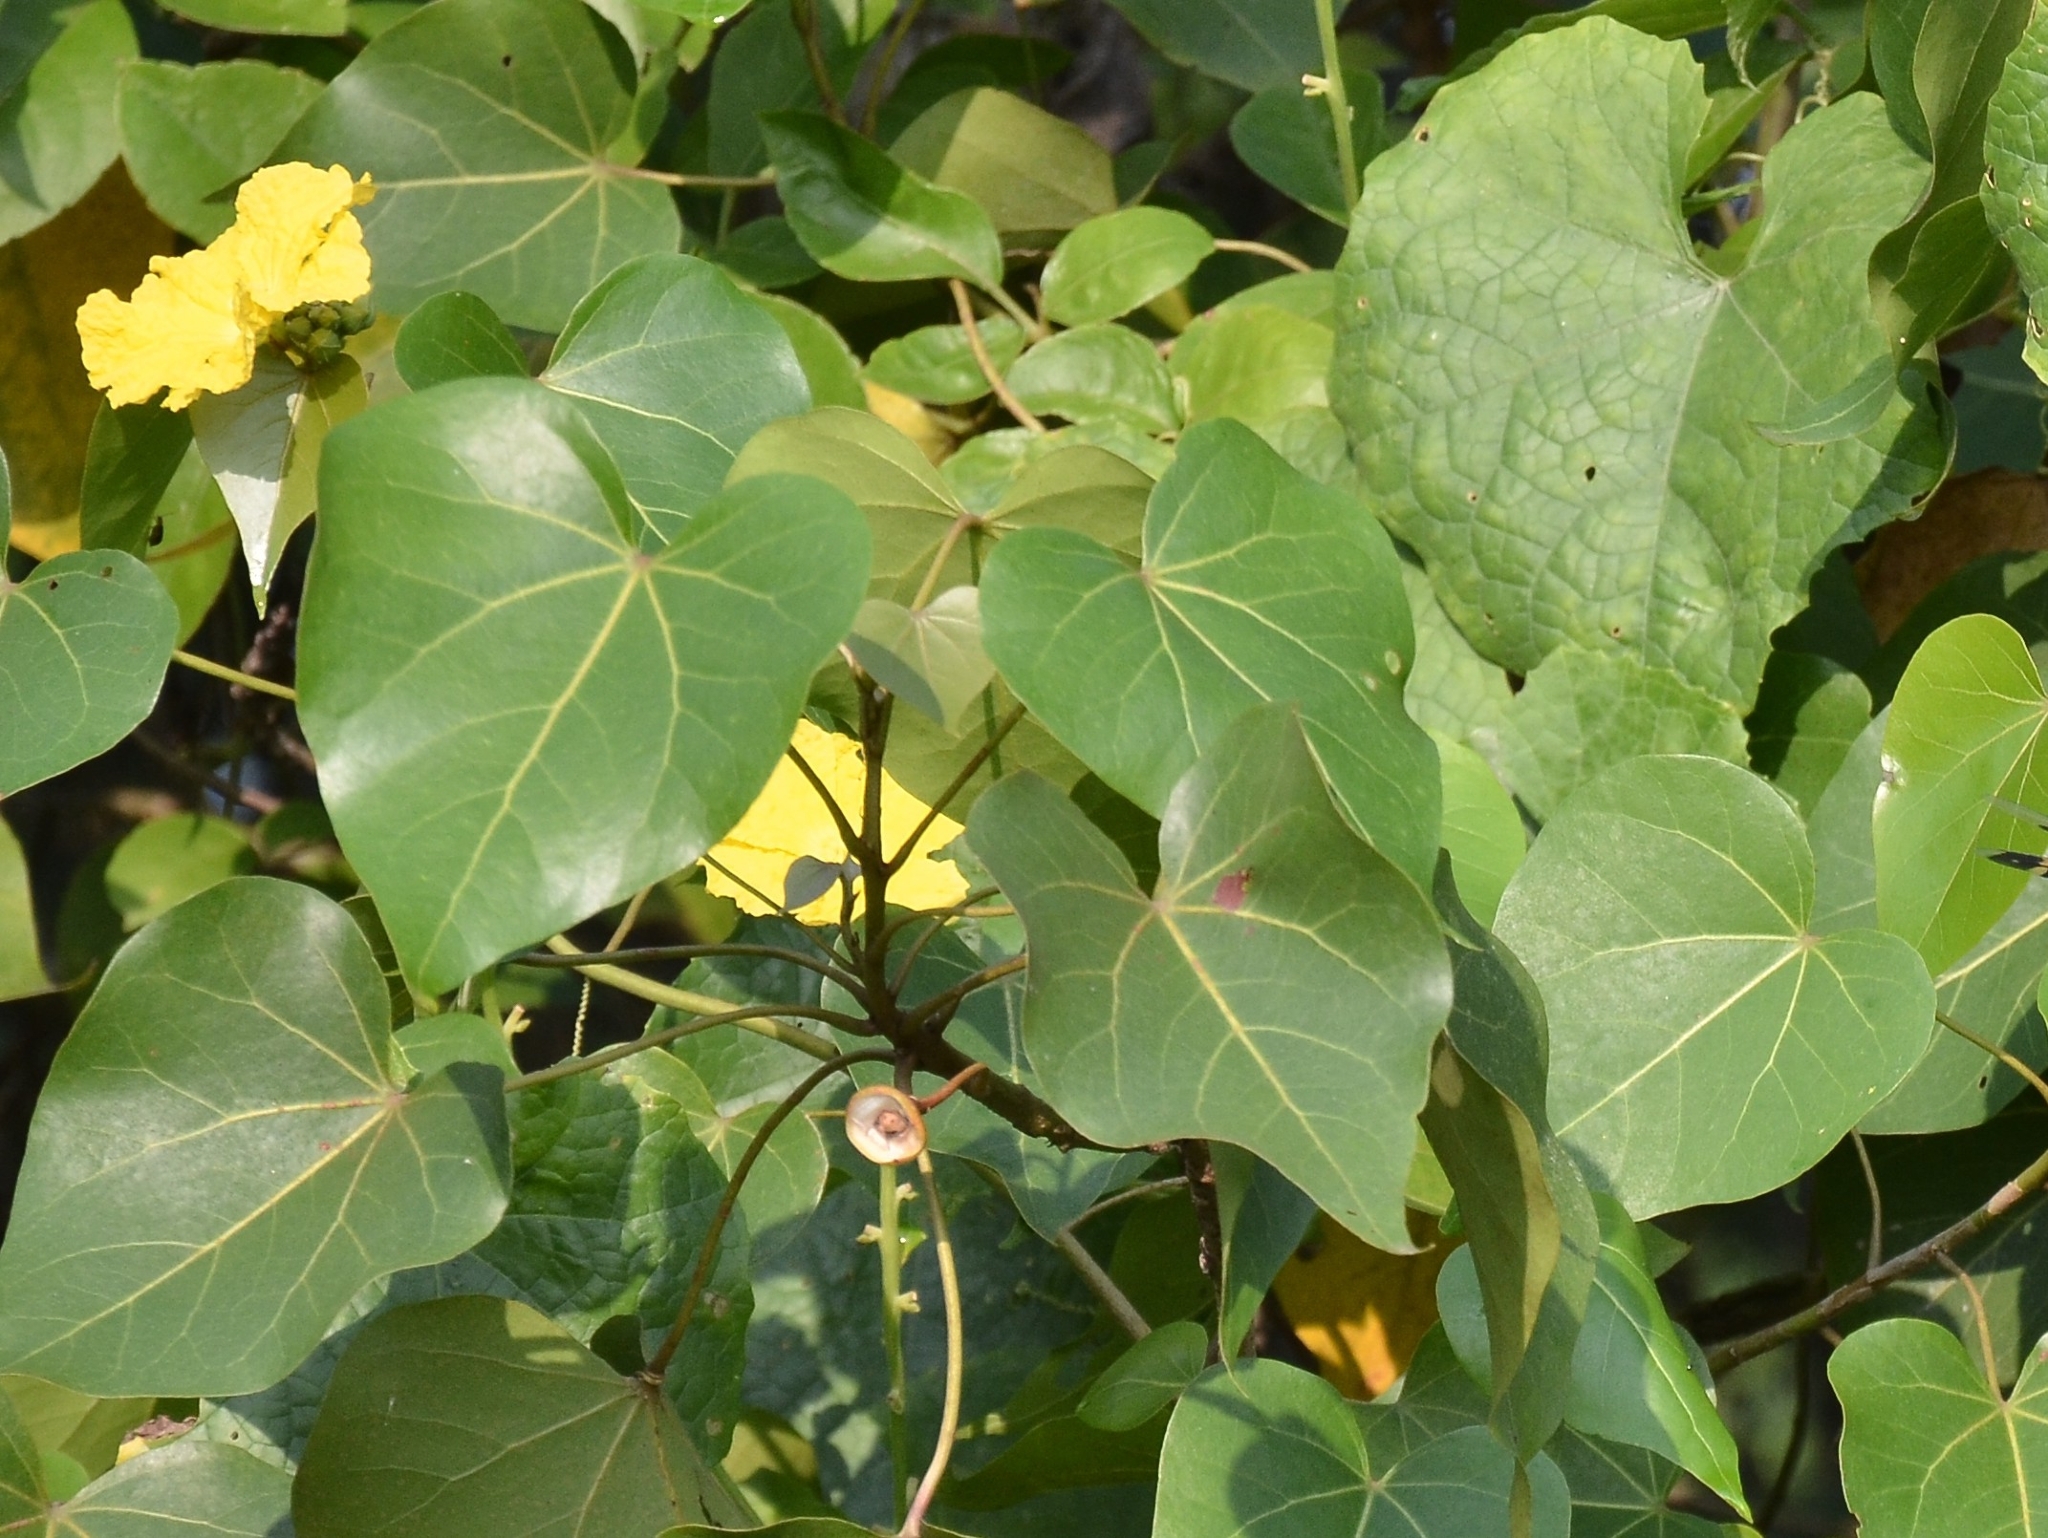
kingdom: Plantae
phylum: Tracheophyta
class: Magnoliopsida
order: Malvales
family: Malvaceae
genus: Thespesia
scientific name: Thespesia populnea
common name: Seaside mahoe
